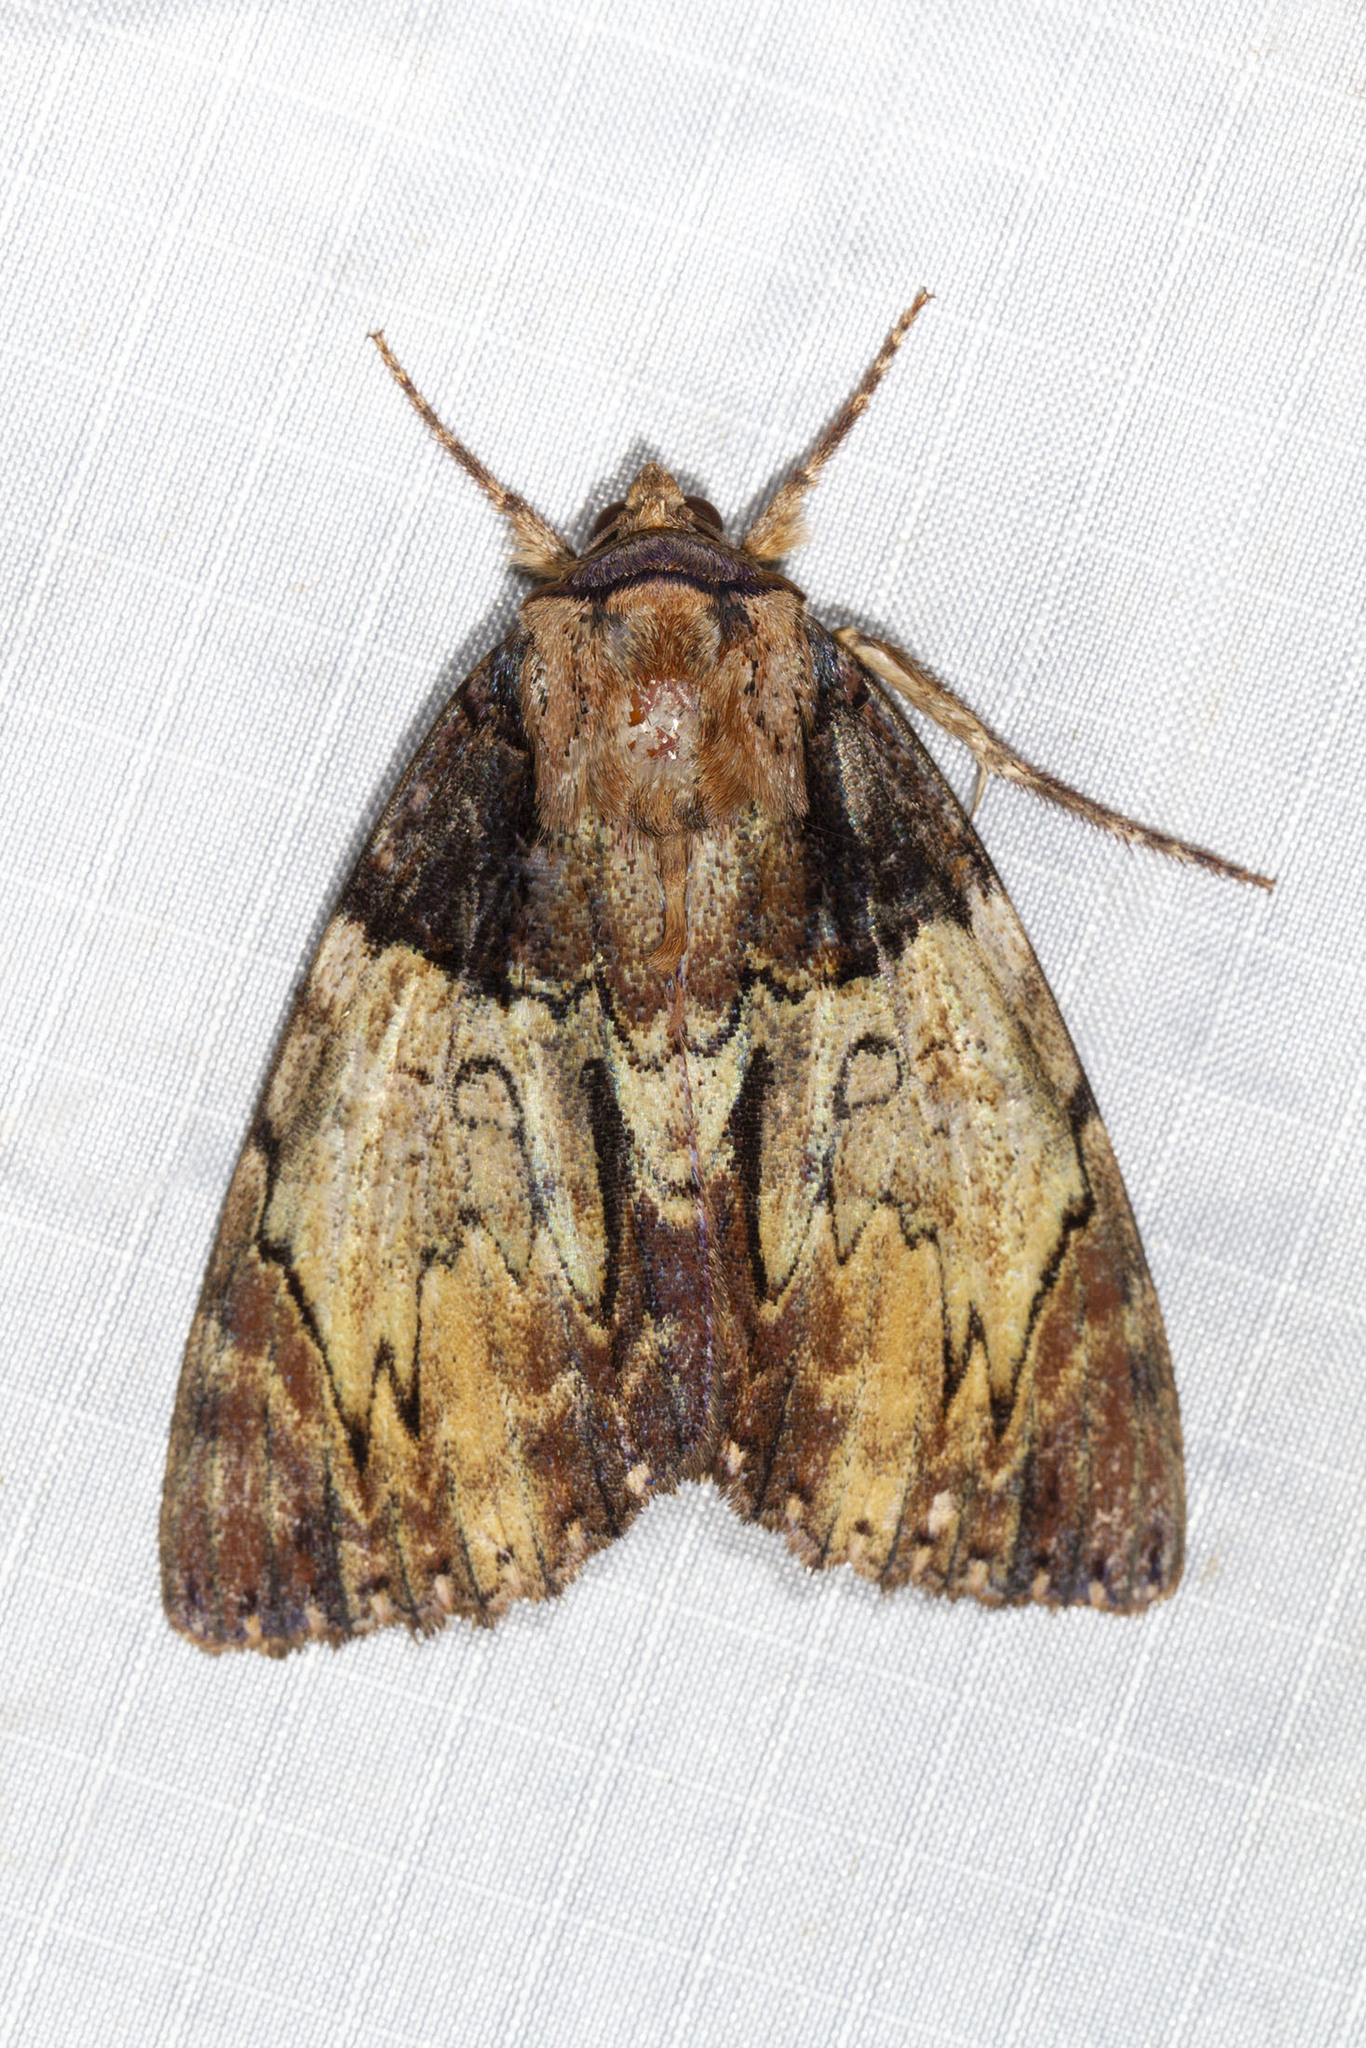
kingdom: Animalia
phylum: Arthropoda
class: Insecta
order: Lepidoptera
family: Erebidae
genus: Catocala
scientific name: Catocala nebulosa
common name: Clouded underwing
